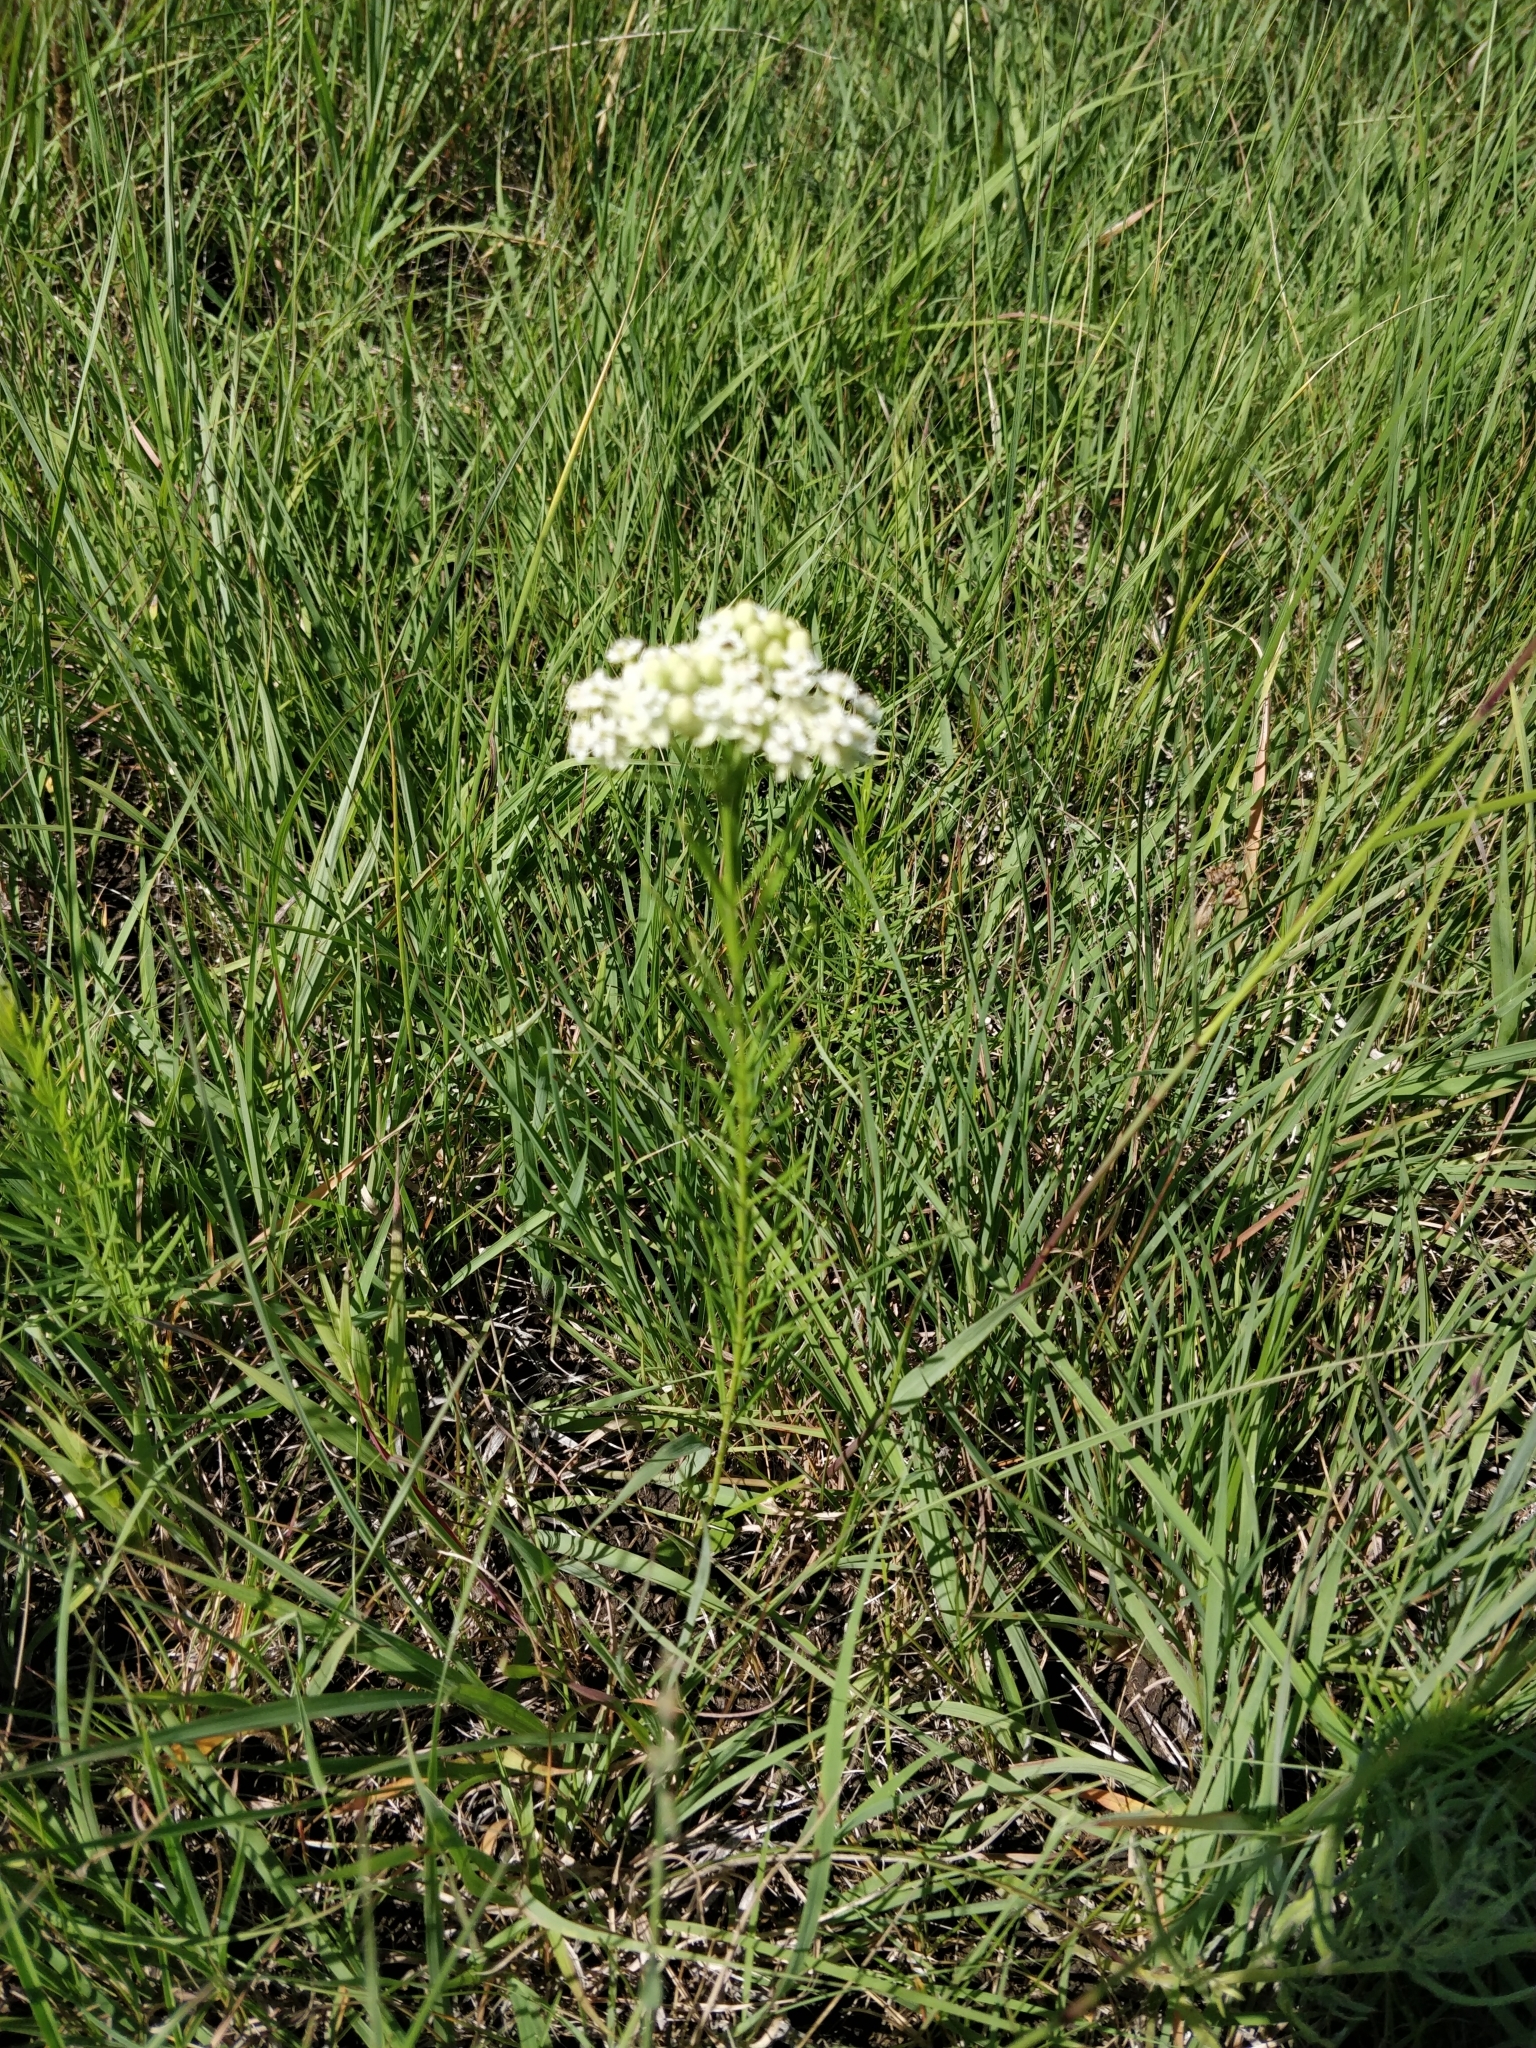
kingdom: Plantae
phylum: Tracheophyta
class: Magnoliopsida
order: Gentianales
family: Apocynaceae
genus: Asclepias
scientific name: Asclepias verticillata
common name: Eastern whorled milkweed
